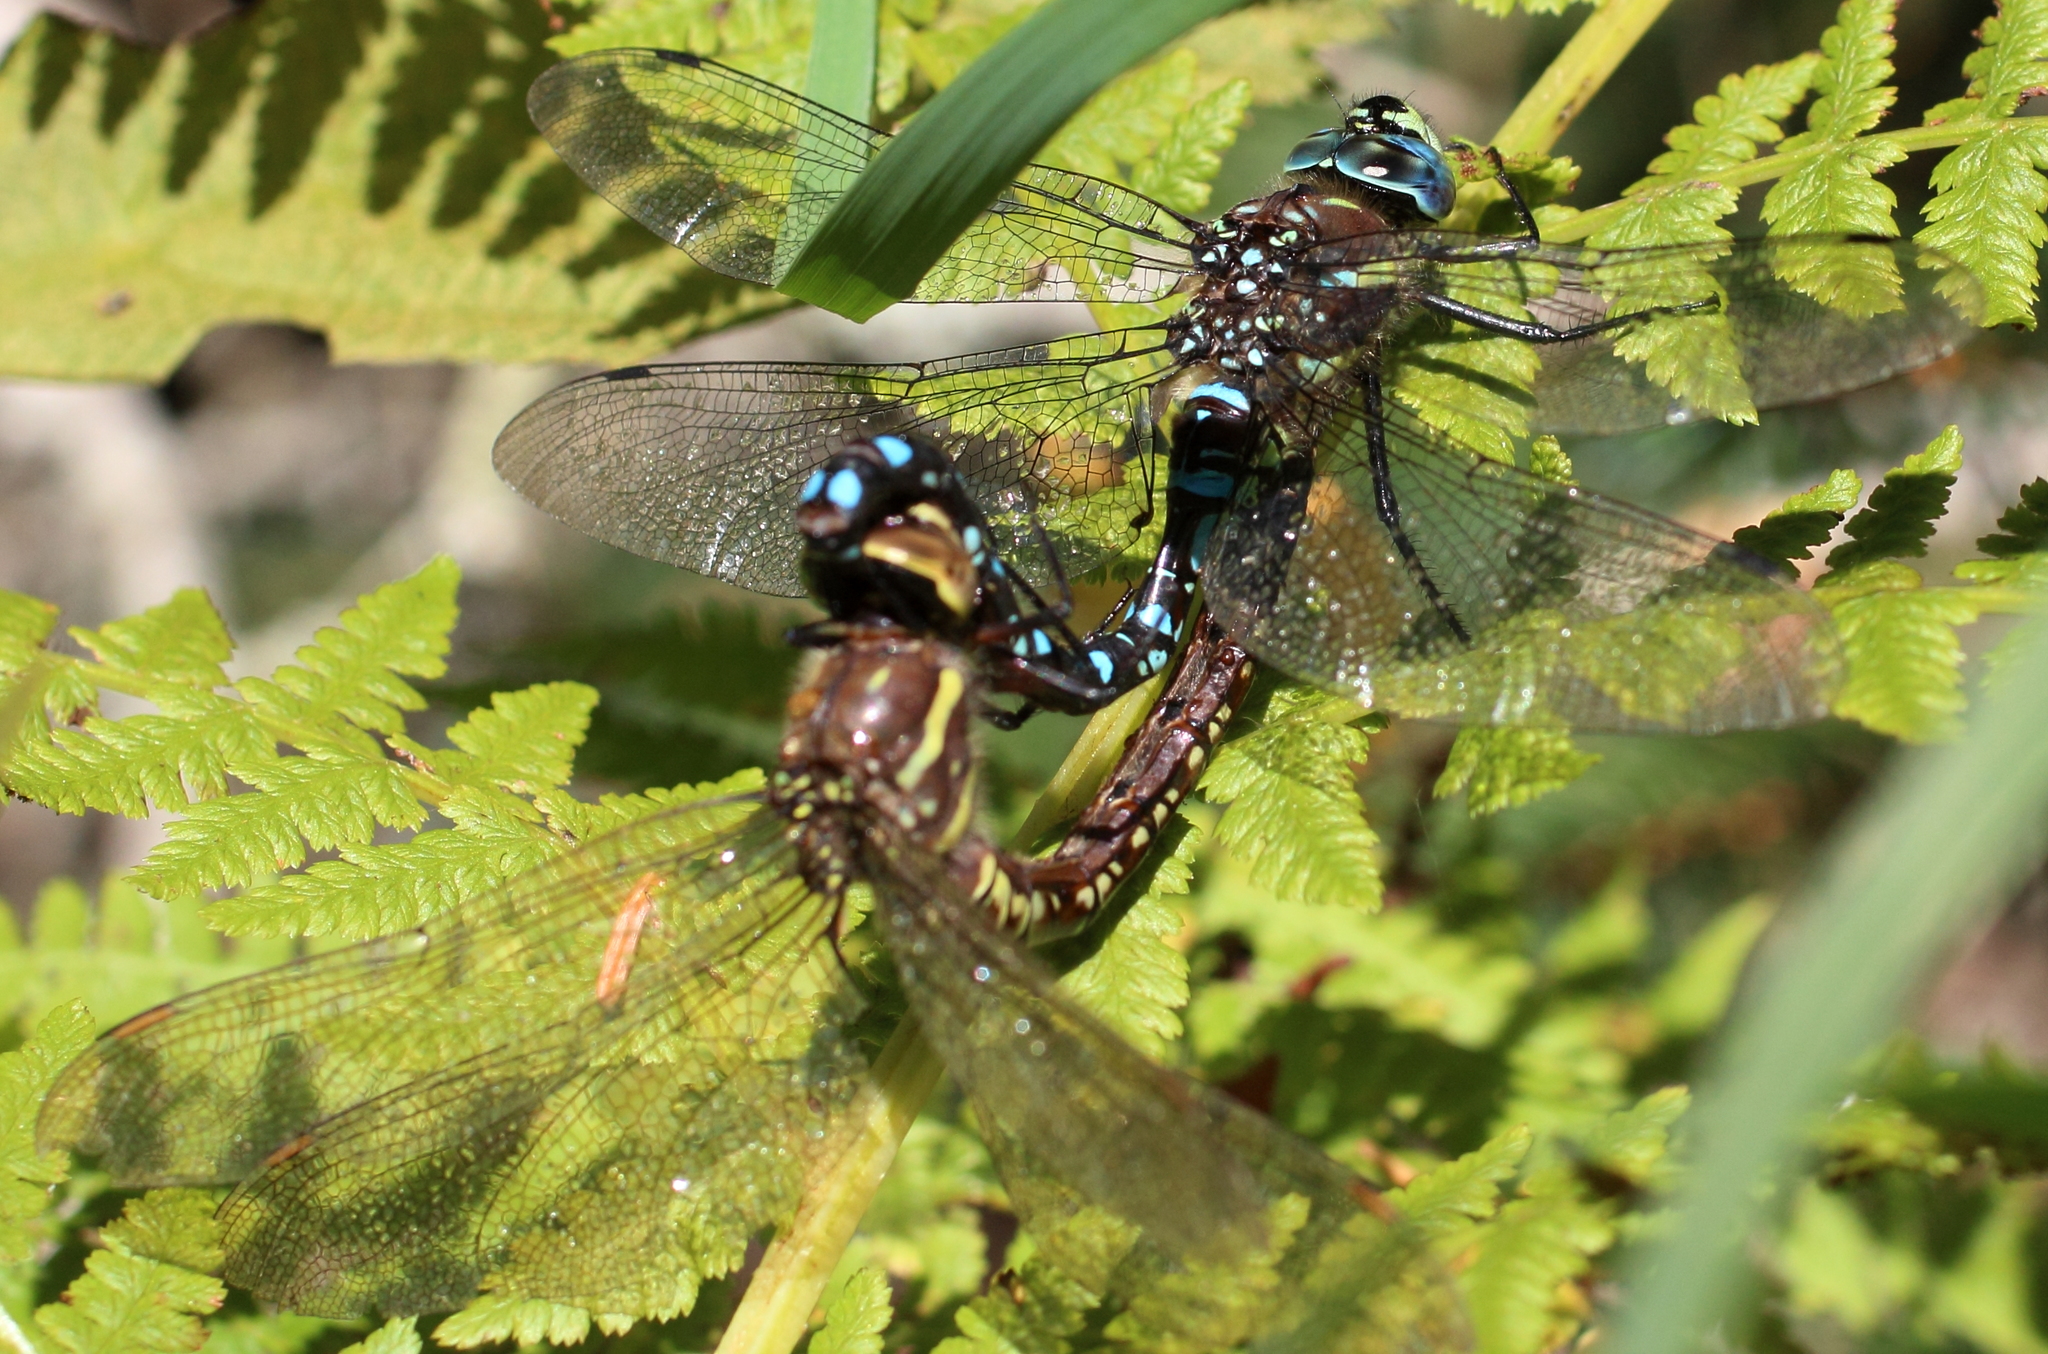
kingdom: Animalia
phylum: Arthropoda
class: Insecta
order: Odonata
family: Aeshnidae
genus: Aeshna
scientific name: Aeshna palmata
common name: Paddle-tailed darner
